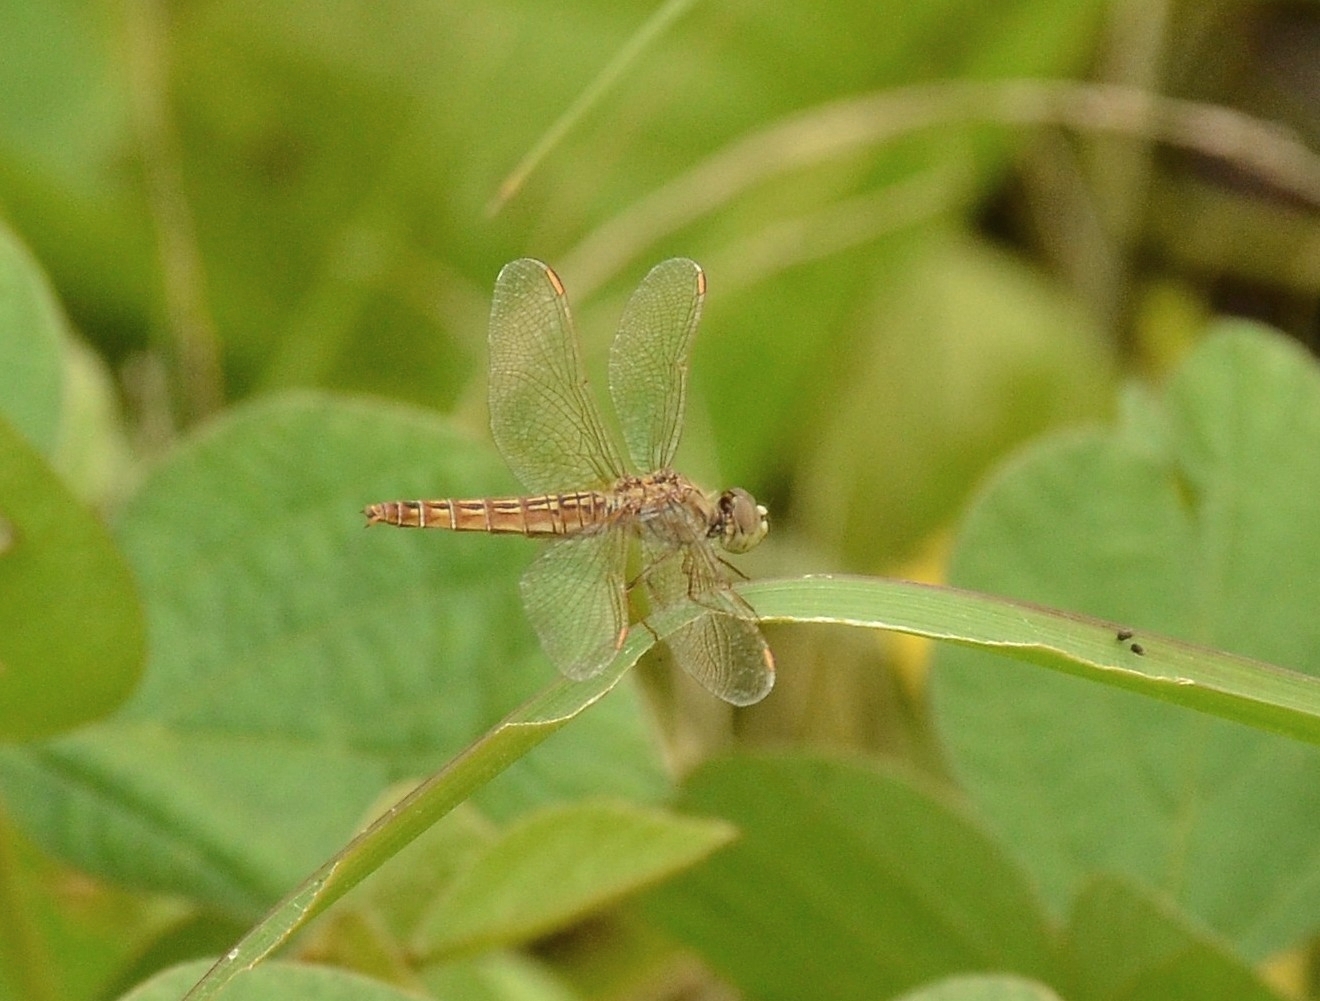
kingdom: Animalia
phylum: Arthropoda
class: Insecta
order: Odonata
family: Libellulidae
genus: Brachythemis
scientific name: Brachythemis contaminata
